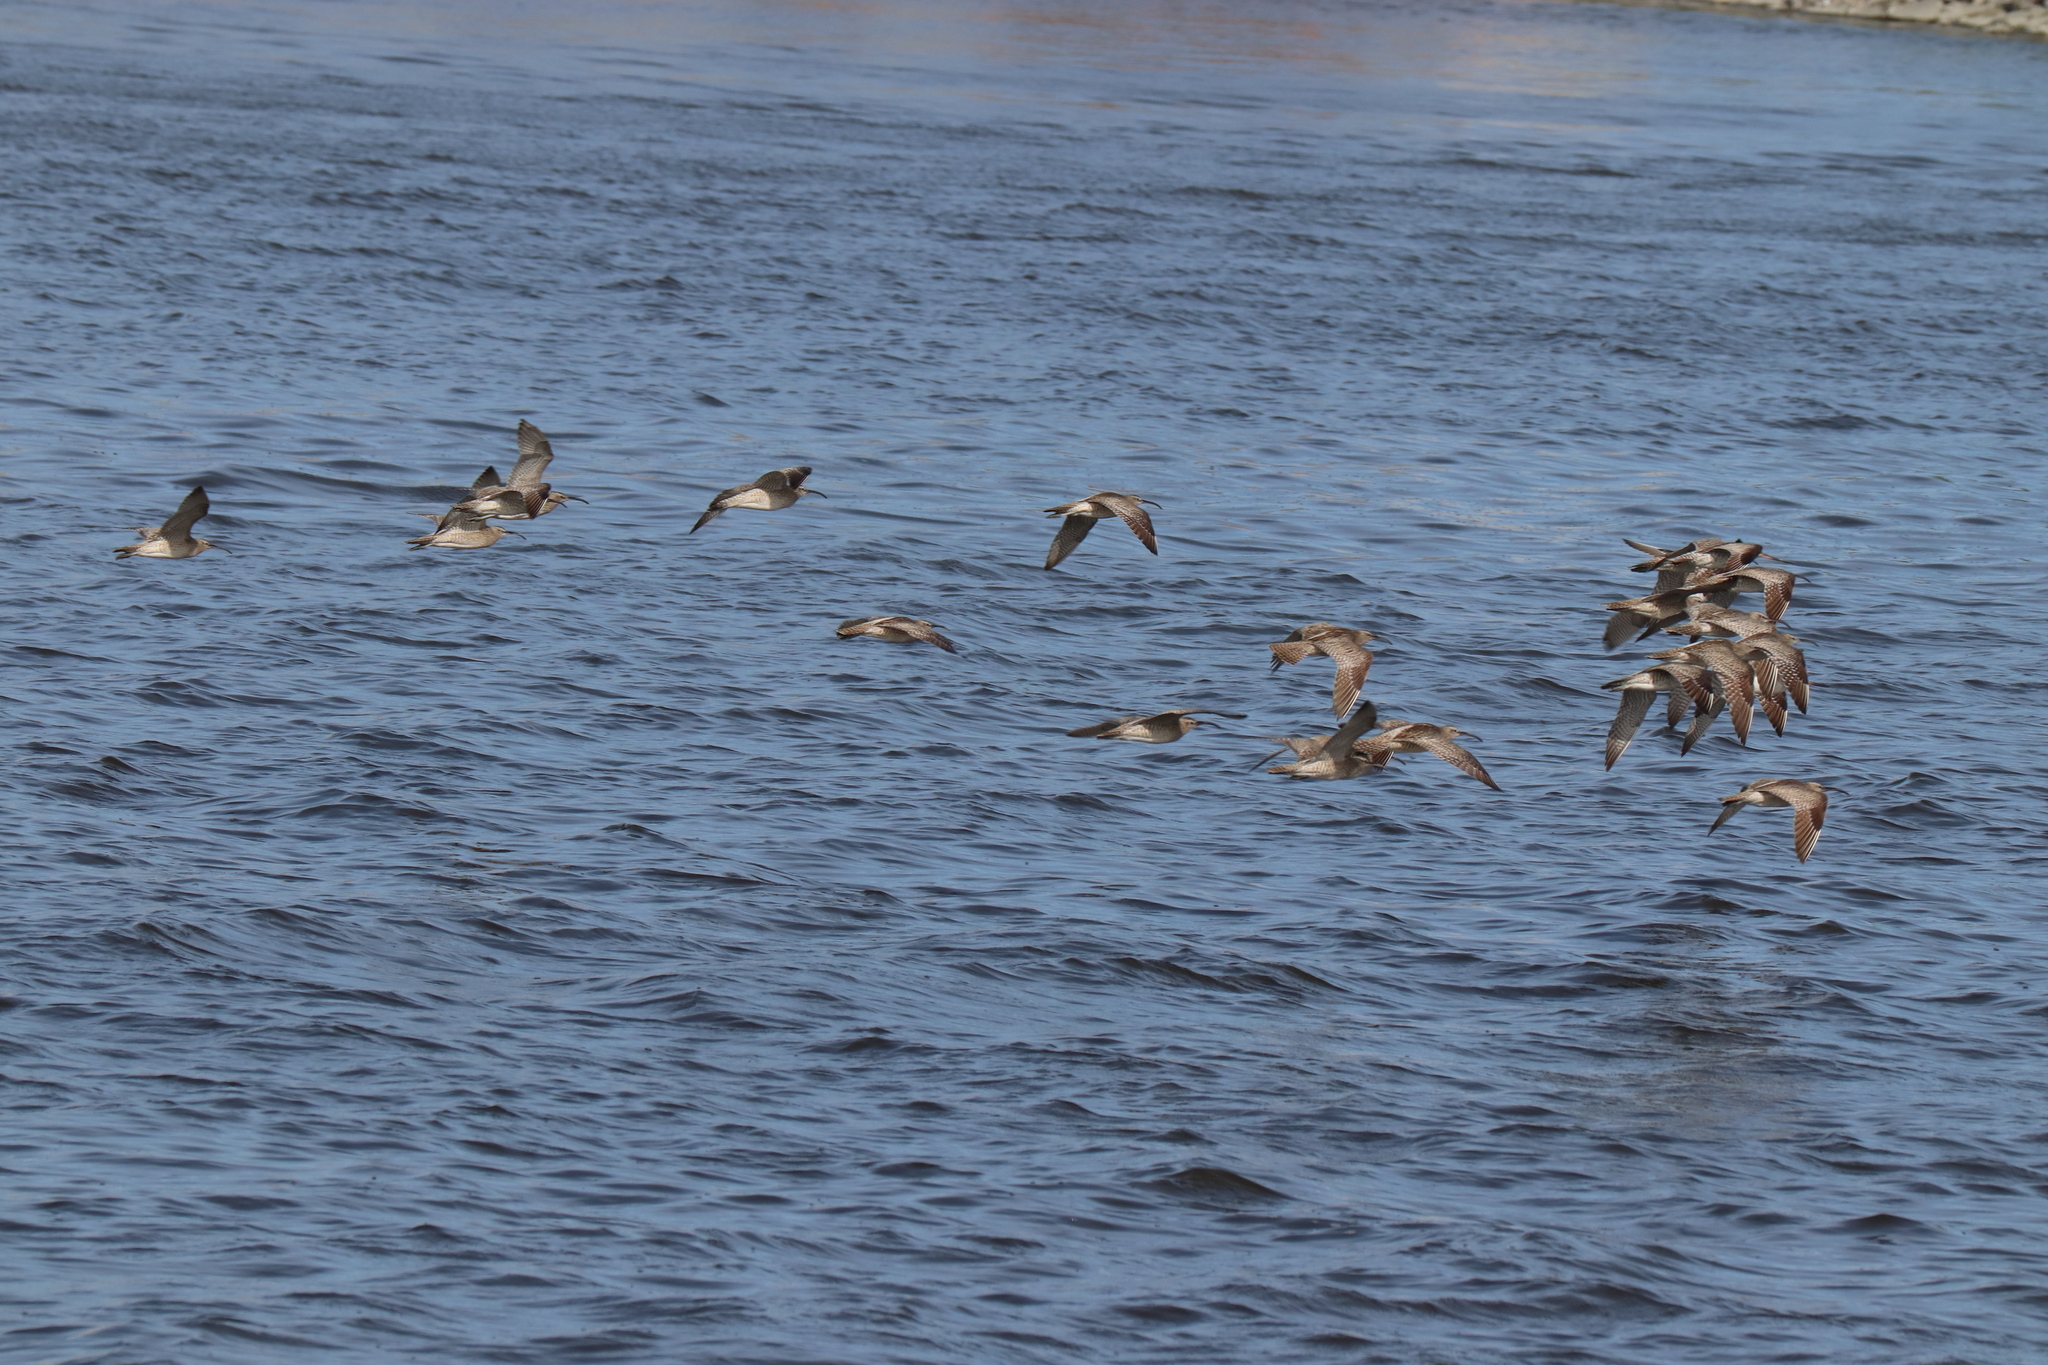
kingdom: Animalia
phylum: Chordata
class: Aves
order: Charadriiformes
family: Scolopacidae
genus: Numenius
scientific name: Numenius phaeopus
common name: Whimbrel
